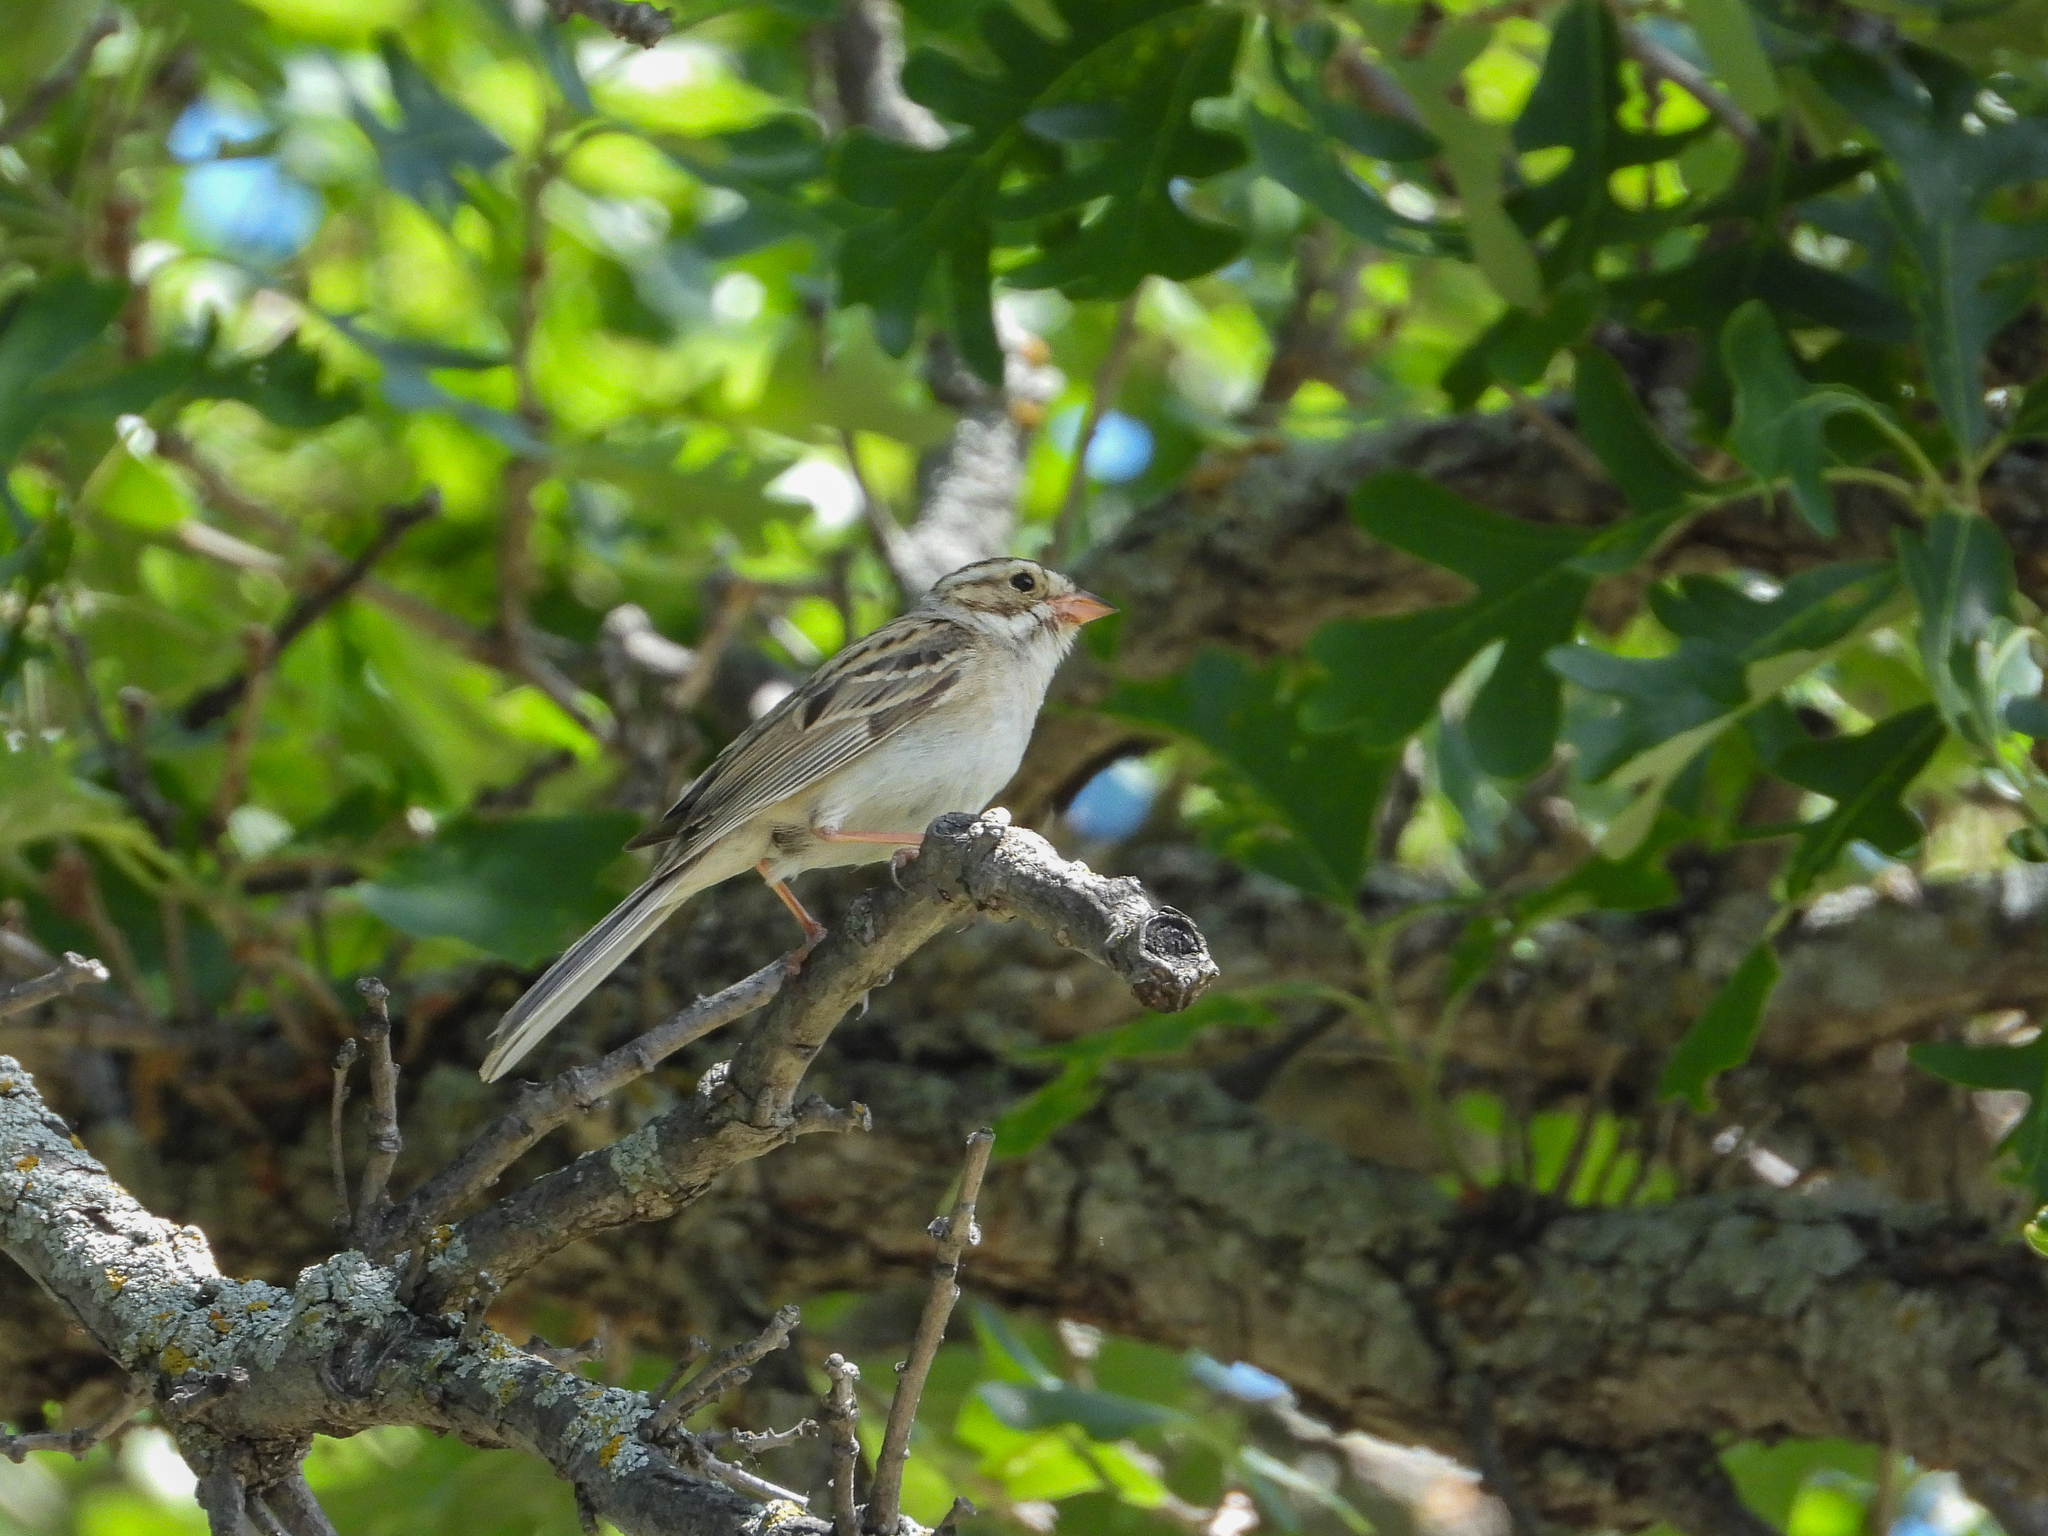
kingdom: Animalia
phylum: Chordata
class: Aves
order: Passeriformes
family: Passerellidae
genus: Spizella
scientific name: Spizella pallida
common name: Clay-colored sparrow
